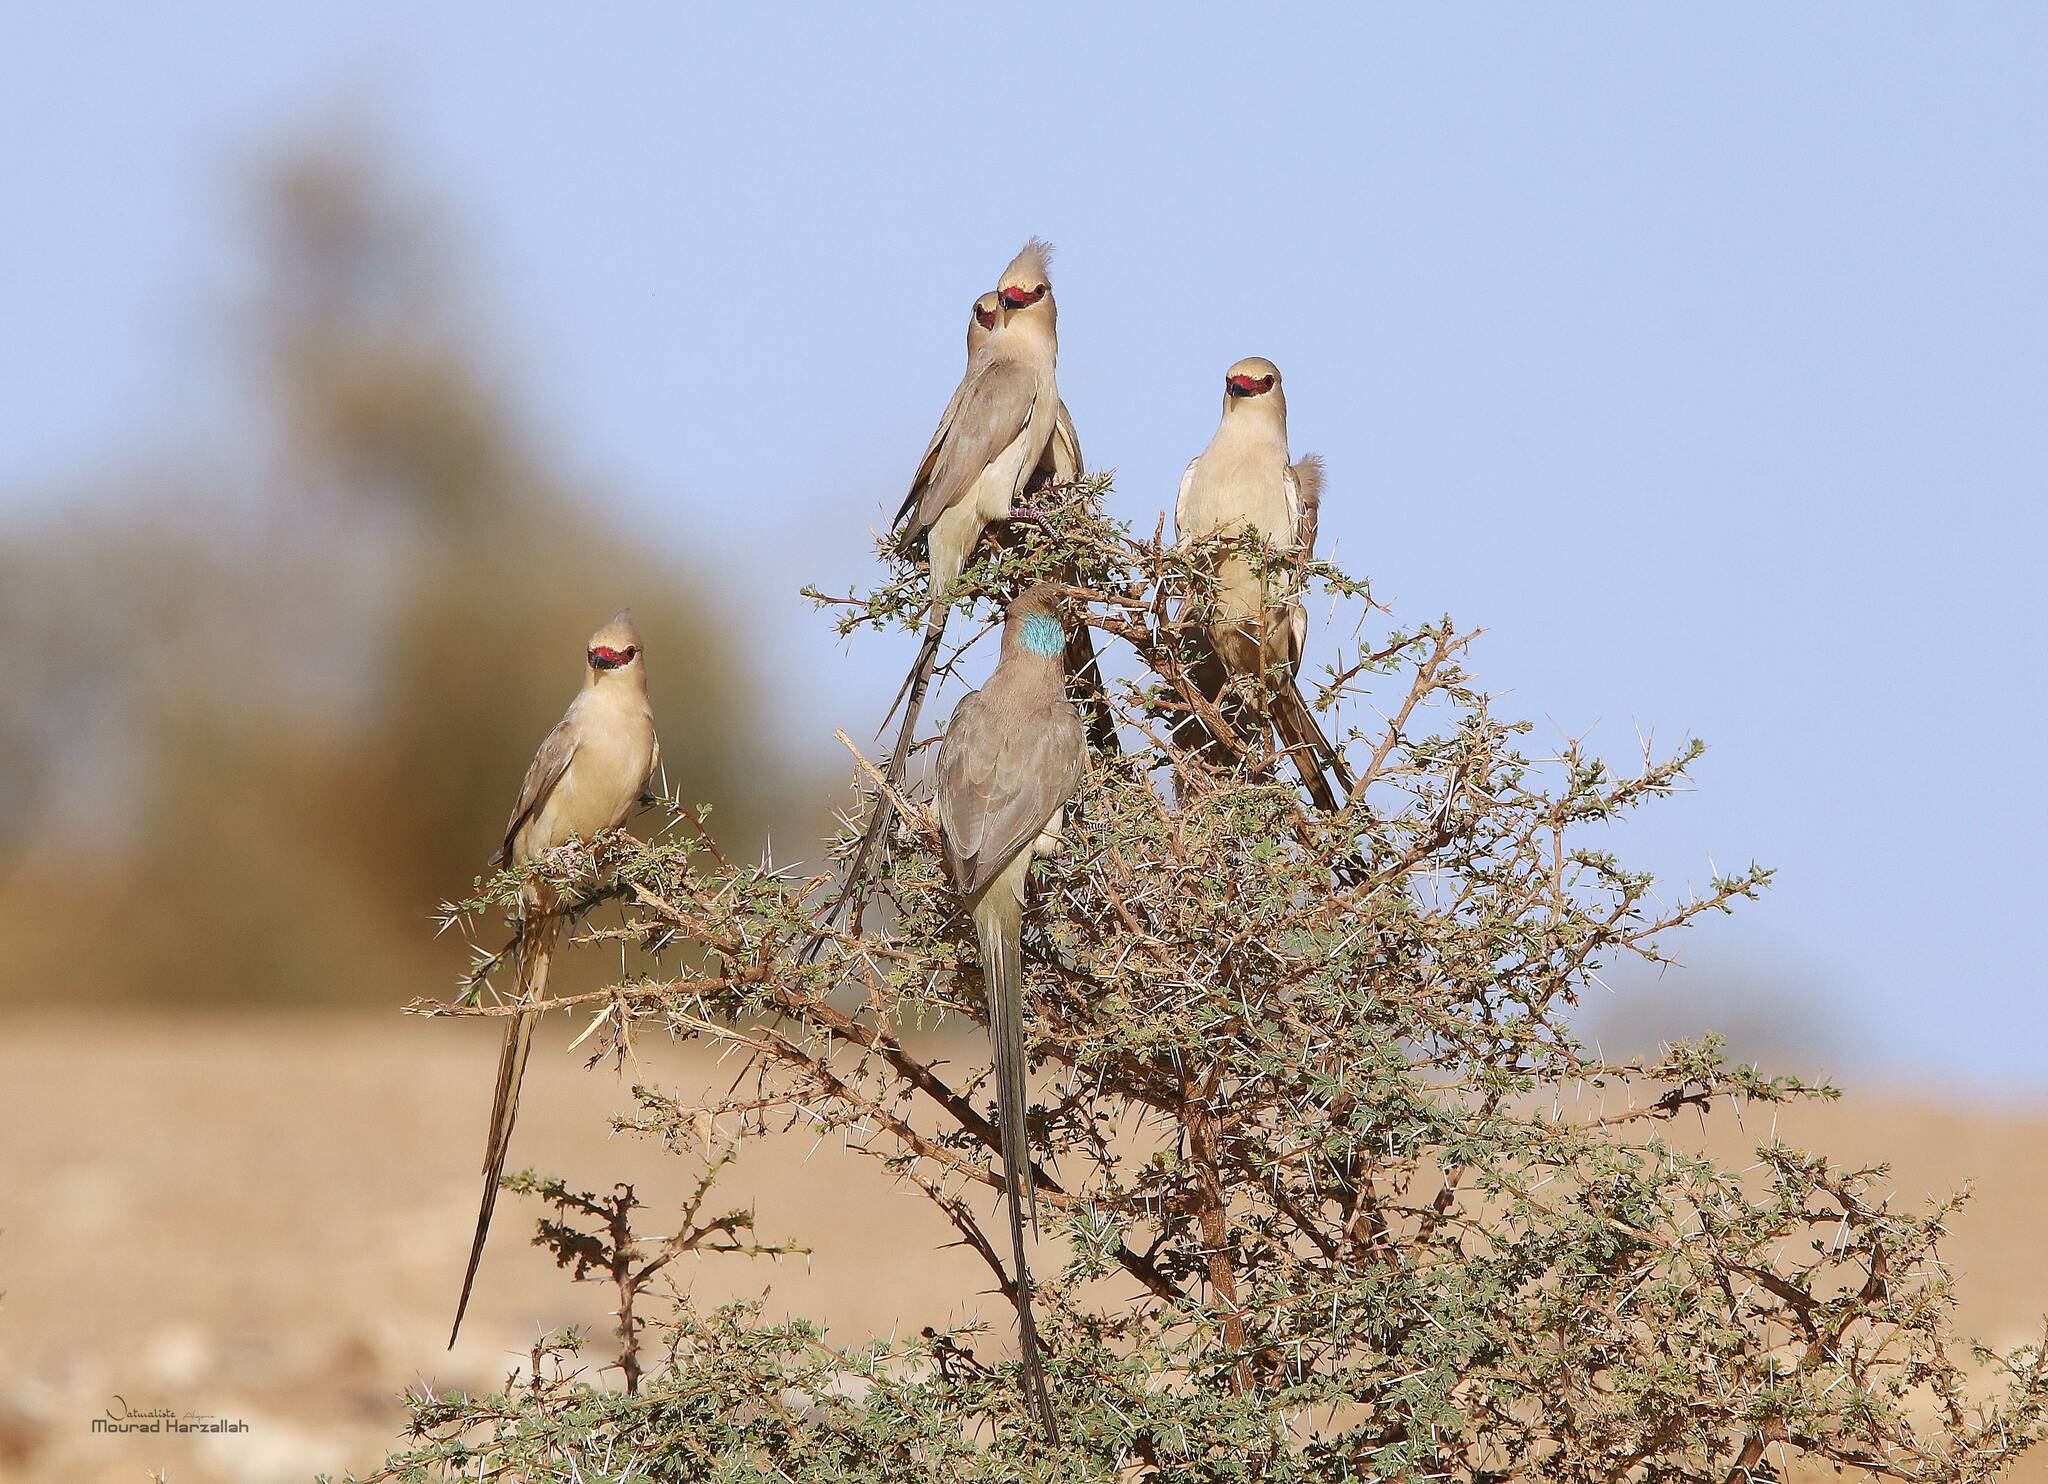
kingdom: Animalia
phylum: Chordata
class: Aves
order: Coliiformes
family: Coliidae
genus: Urocolius
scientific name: Urocolius macrourus
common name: Blue-naped mousebird
